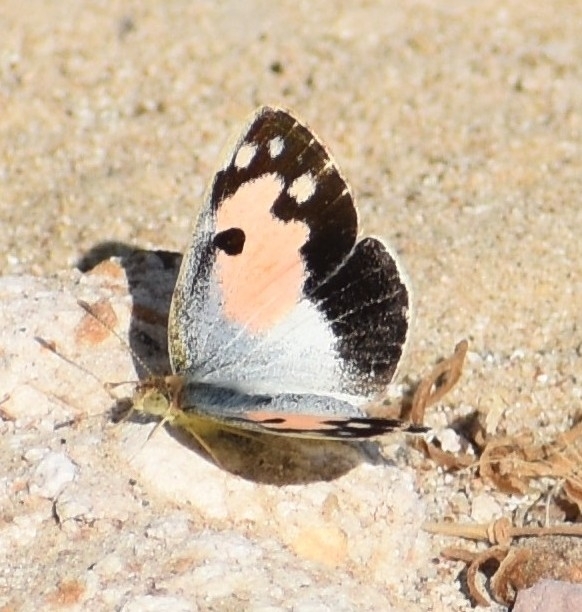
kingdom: Animalia
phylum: Arthropoda
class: Insecta
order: Lepidoptera
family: Pieridae
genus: Colotis
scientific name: Colotis phisadia
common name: Blue spotted arab
